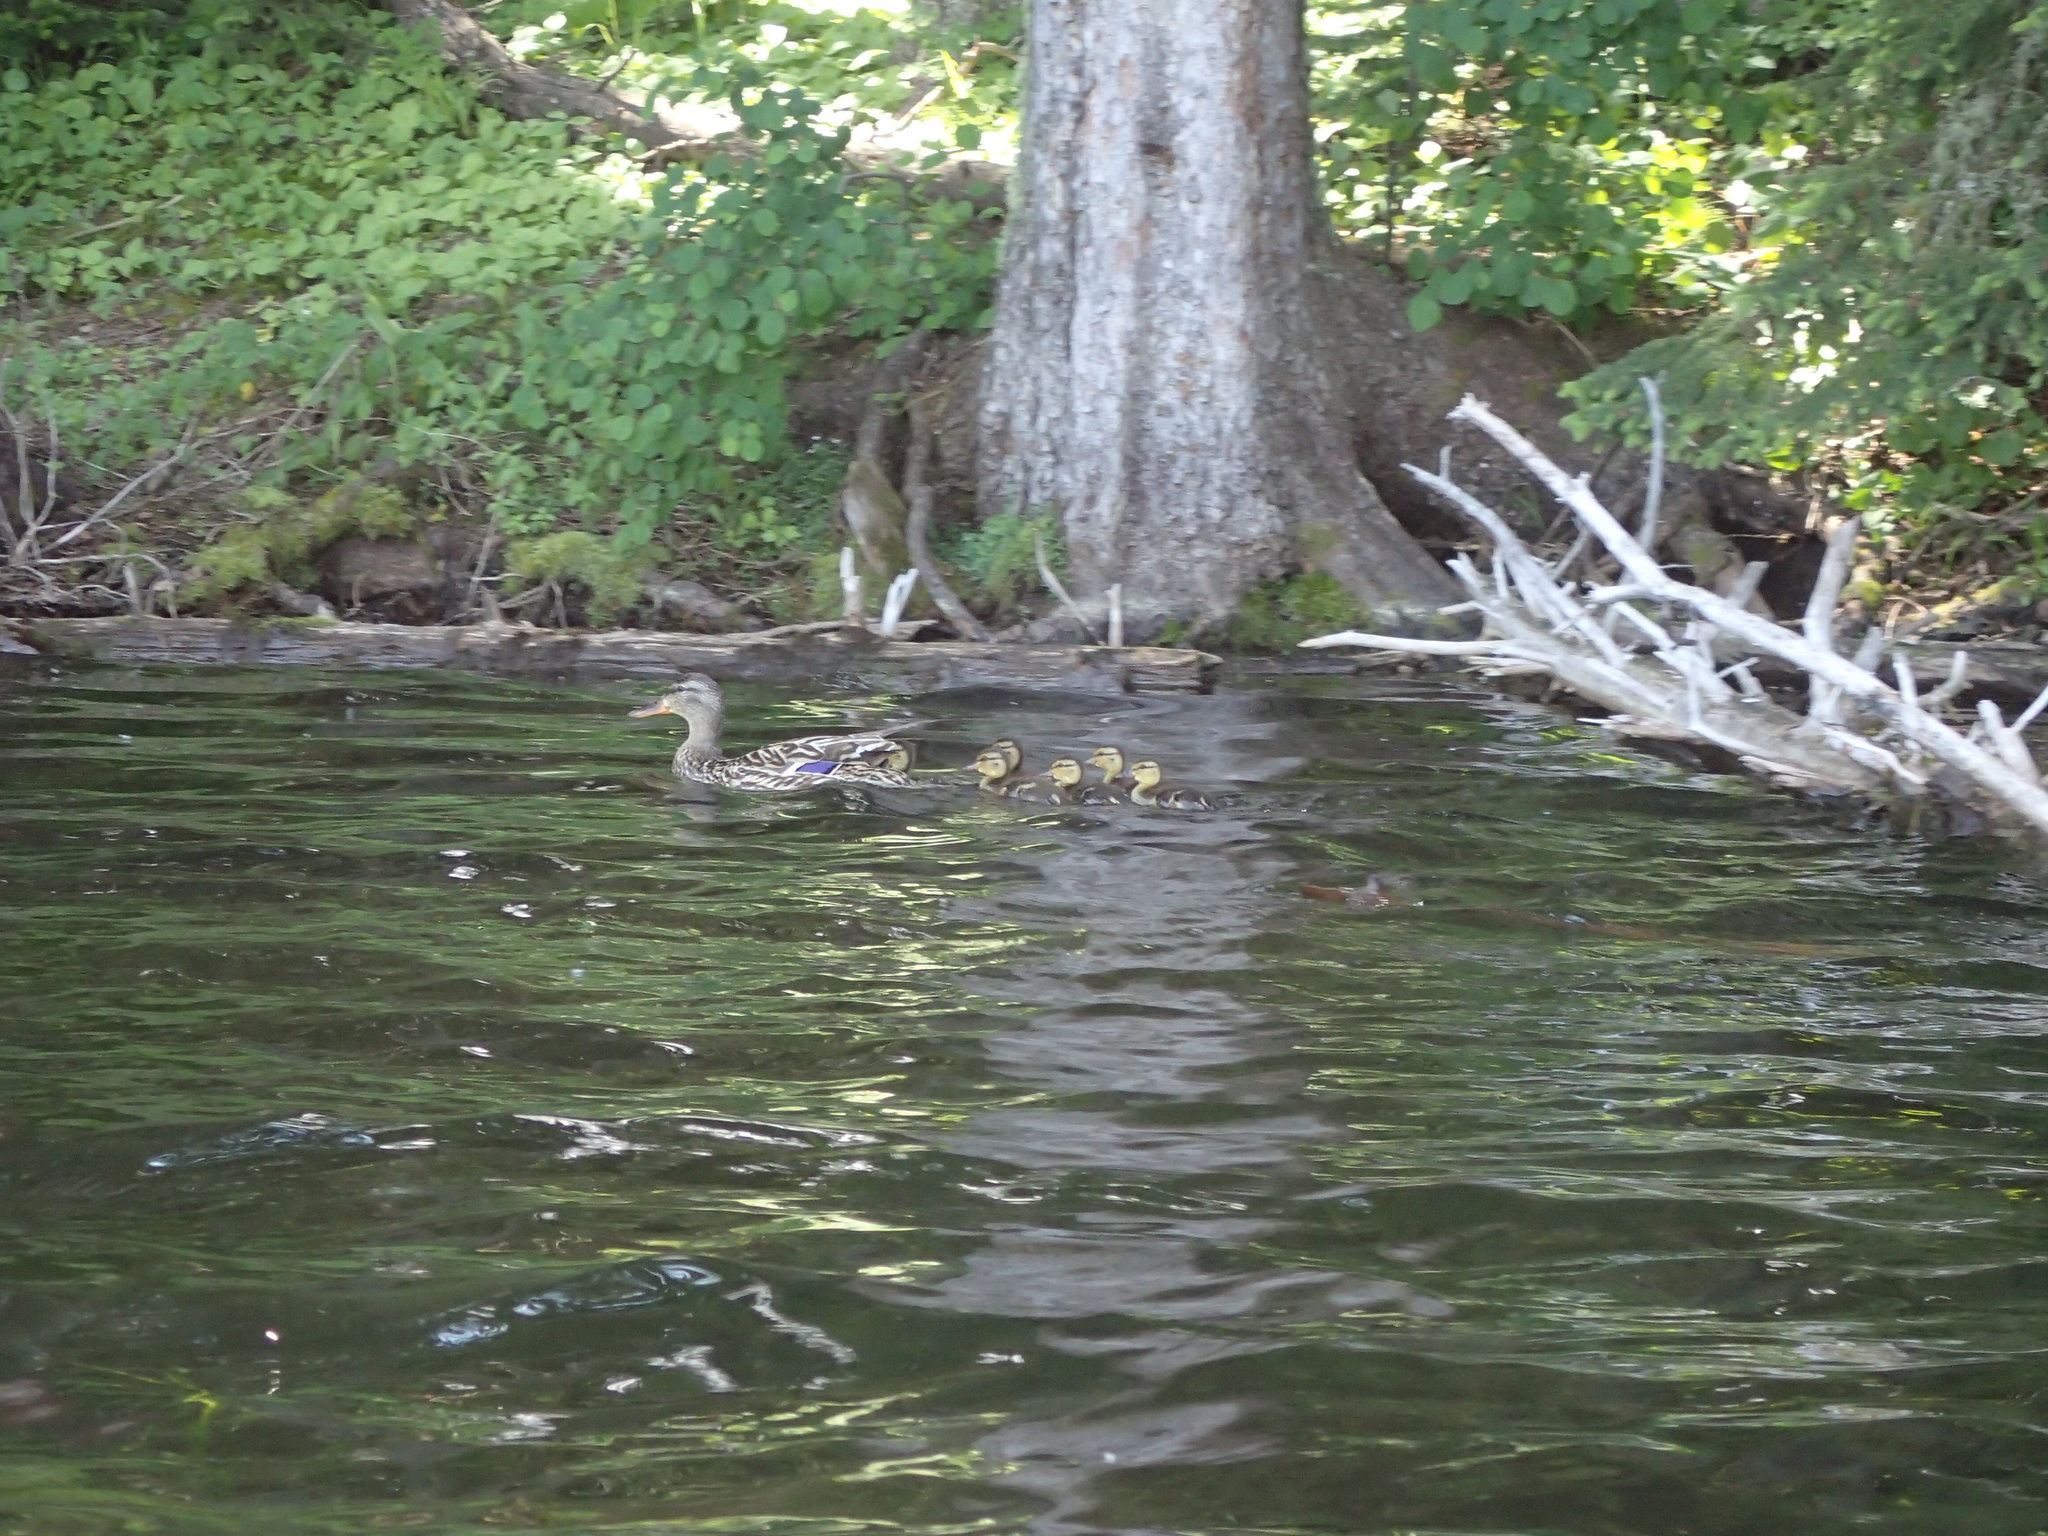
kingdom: Animalia
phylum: Chordata
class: Aves
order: Anseriformes
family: Anatidae
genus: Anas
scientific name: Anas platyrhynchos
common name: Mallard
